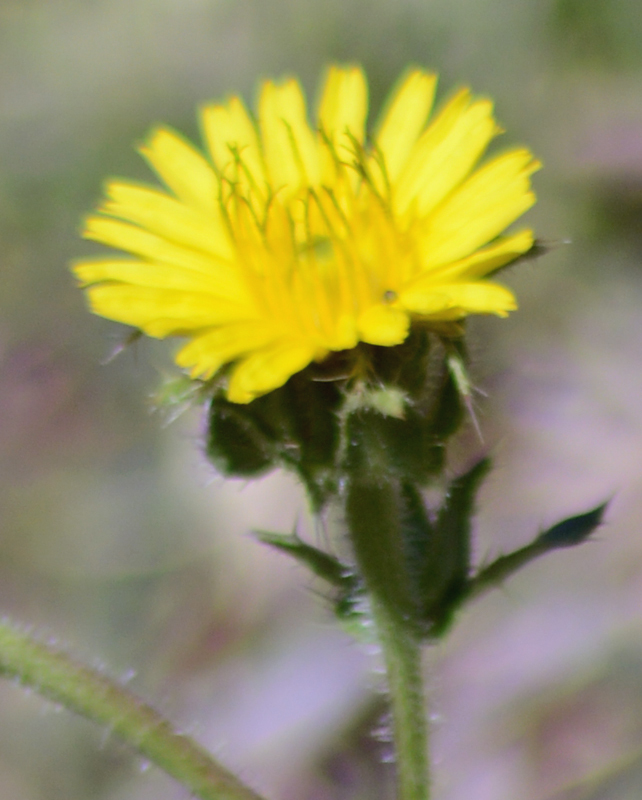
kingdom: Plantae
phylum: Tracheophyta
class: Magnoliopsida
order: Asterales
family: Asteraceae
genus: Helminthotheca
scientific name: Helminthotheca echioides
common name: Ox-tongue
